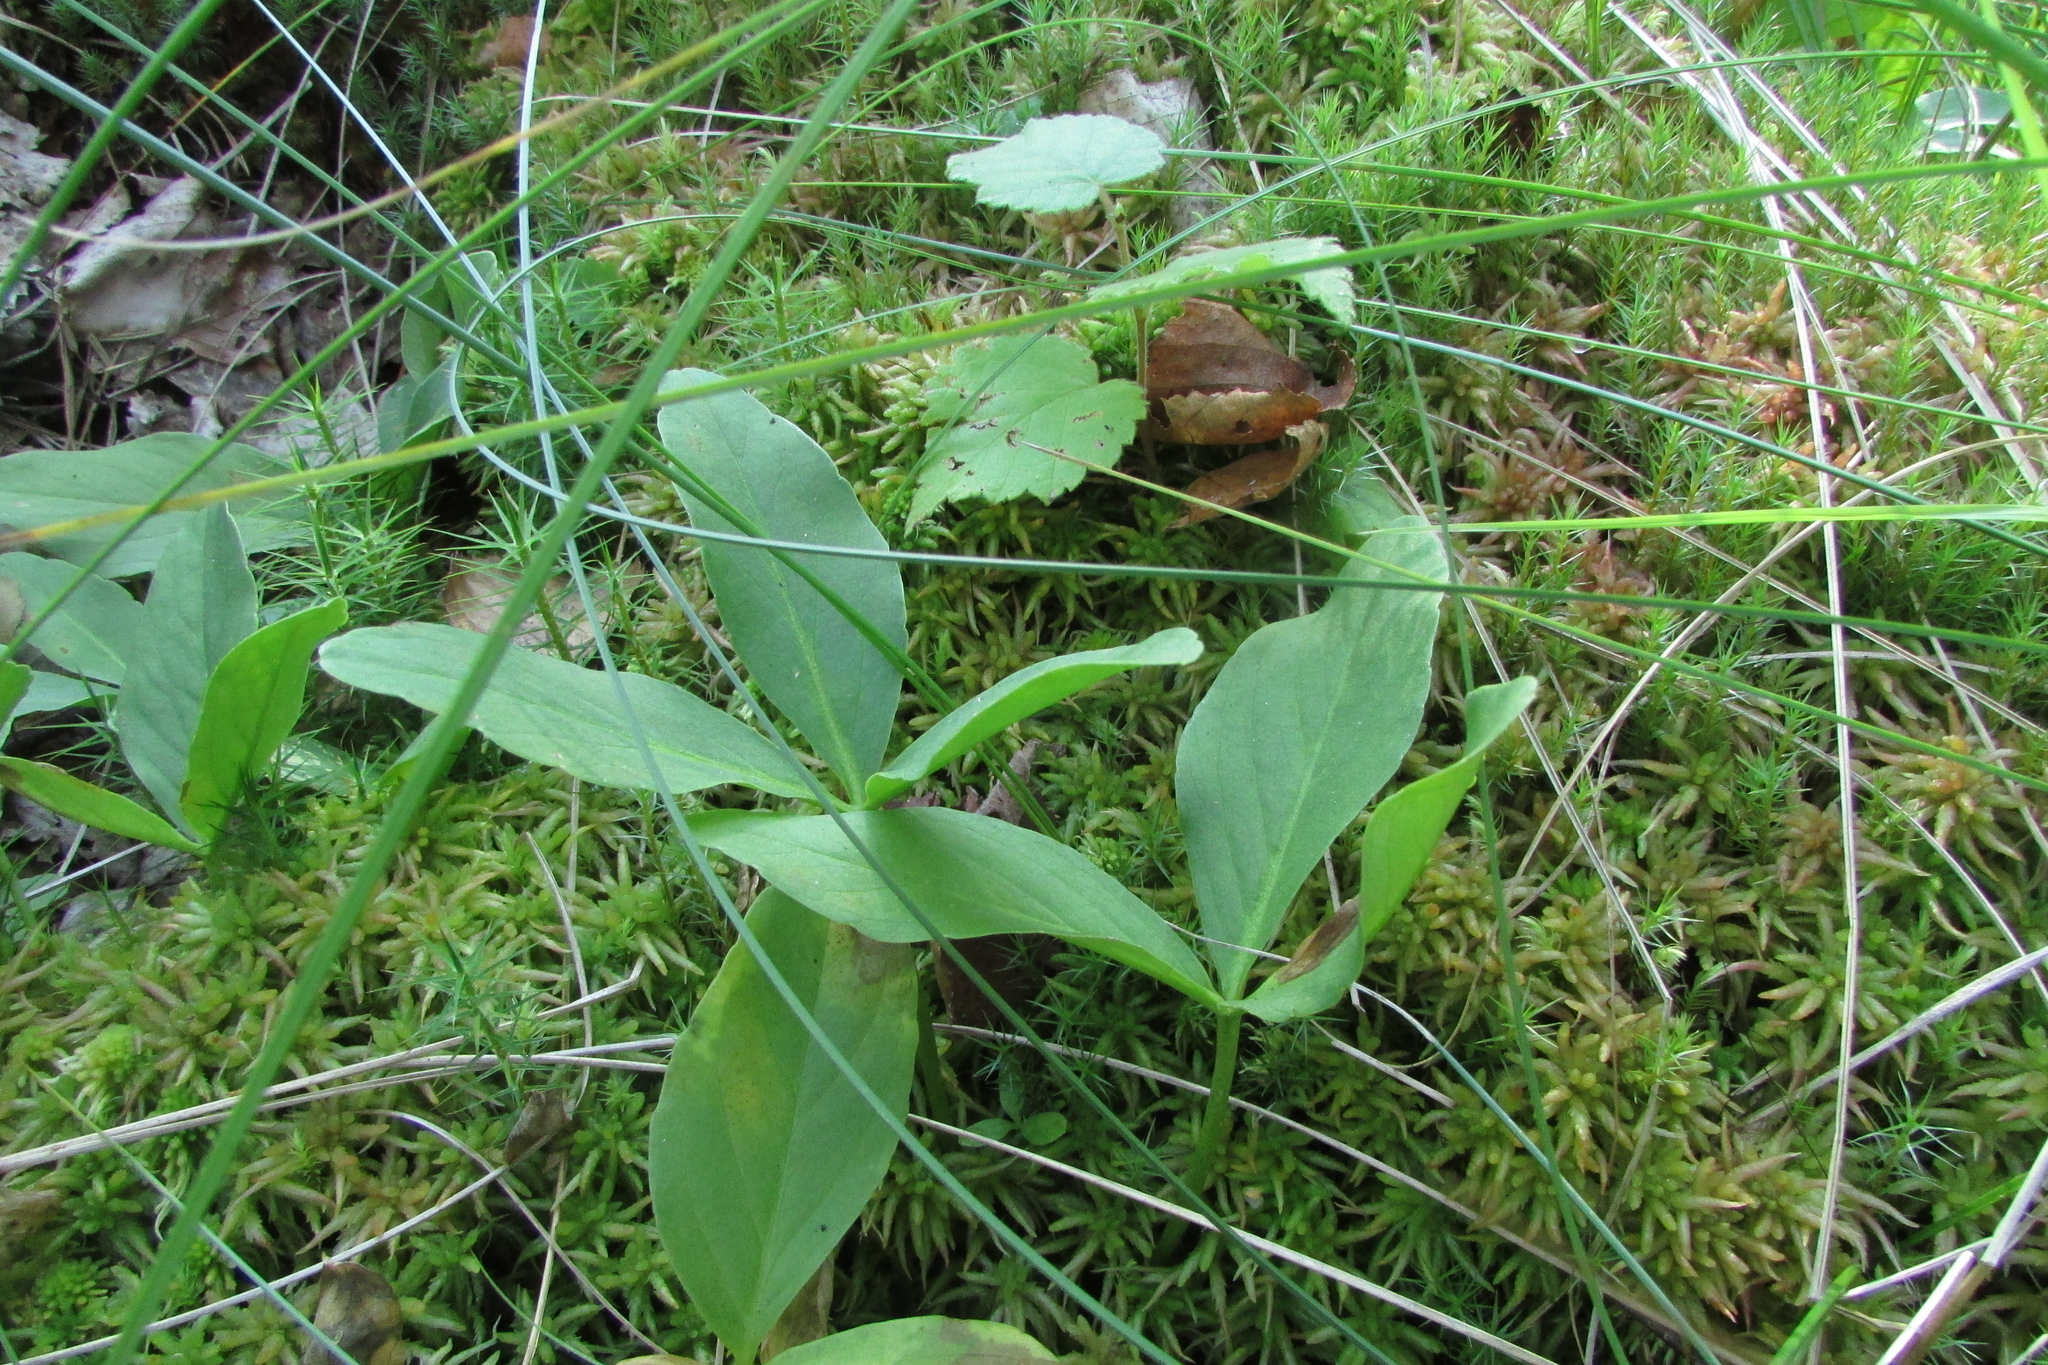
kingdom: Plantae
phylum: Tracheophyta
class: Magnoliopsida
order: Asterales
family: Menyanthaceae
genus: Menyanthes
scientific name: Menyanthes trifoliata
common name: Bogbean
